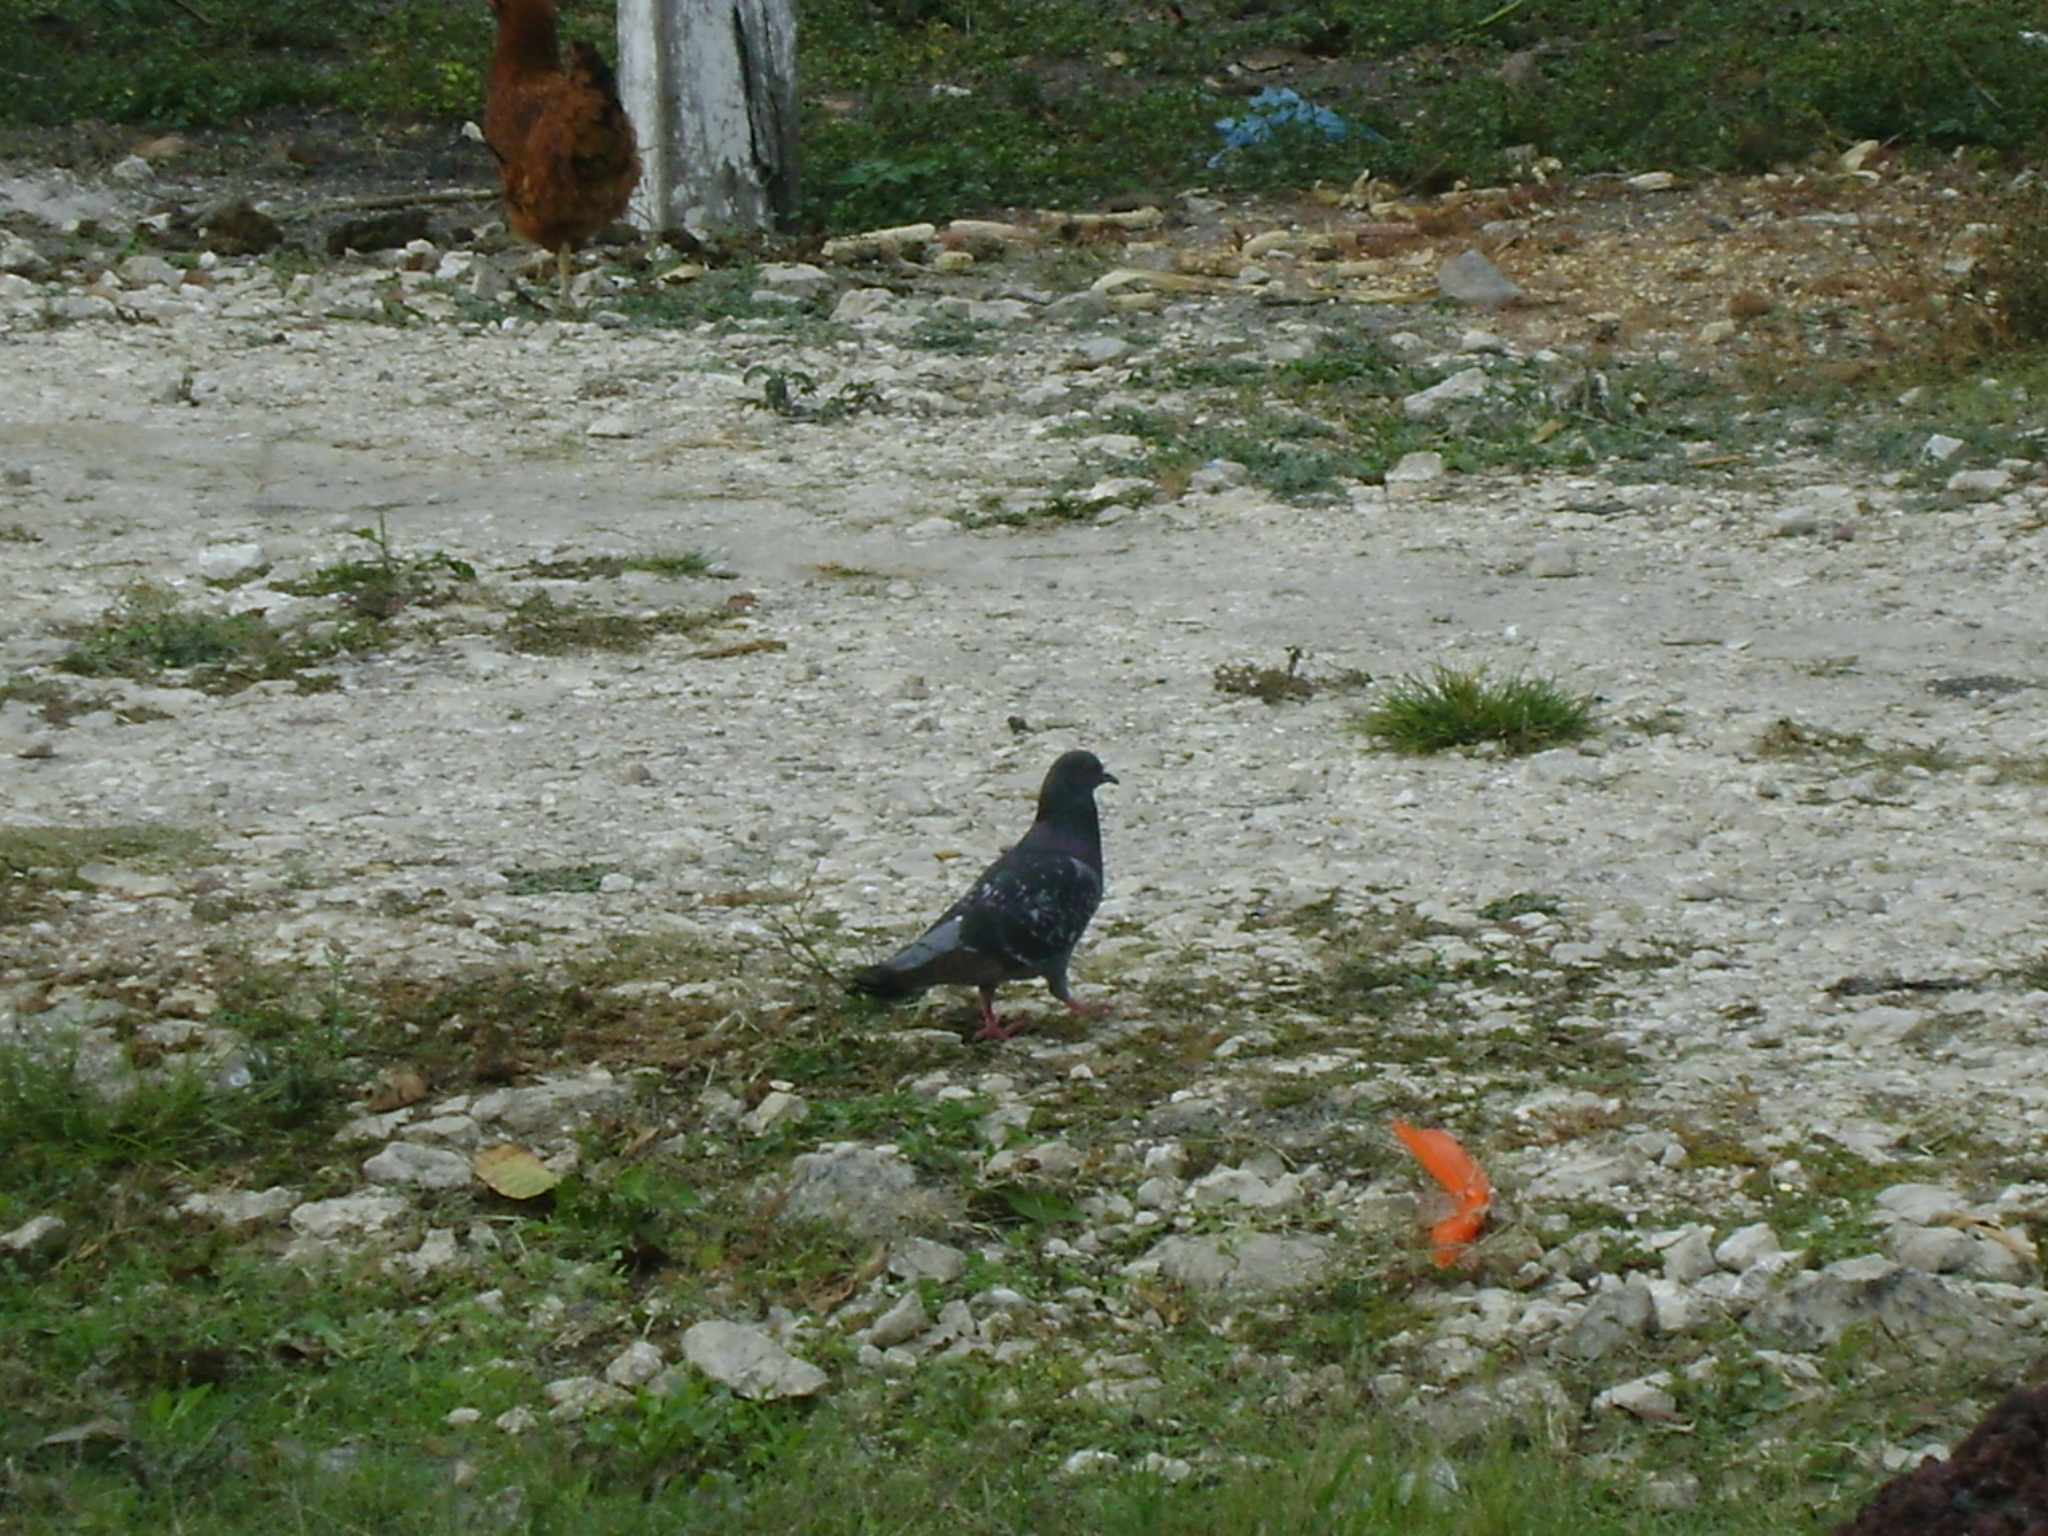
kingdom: Animalia
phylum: Chordata
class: Aves
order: Columbiformes
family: Columbidae
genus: Columba
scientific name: Columba livia
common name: Rock pigeon
